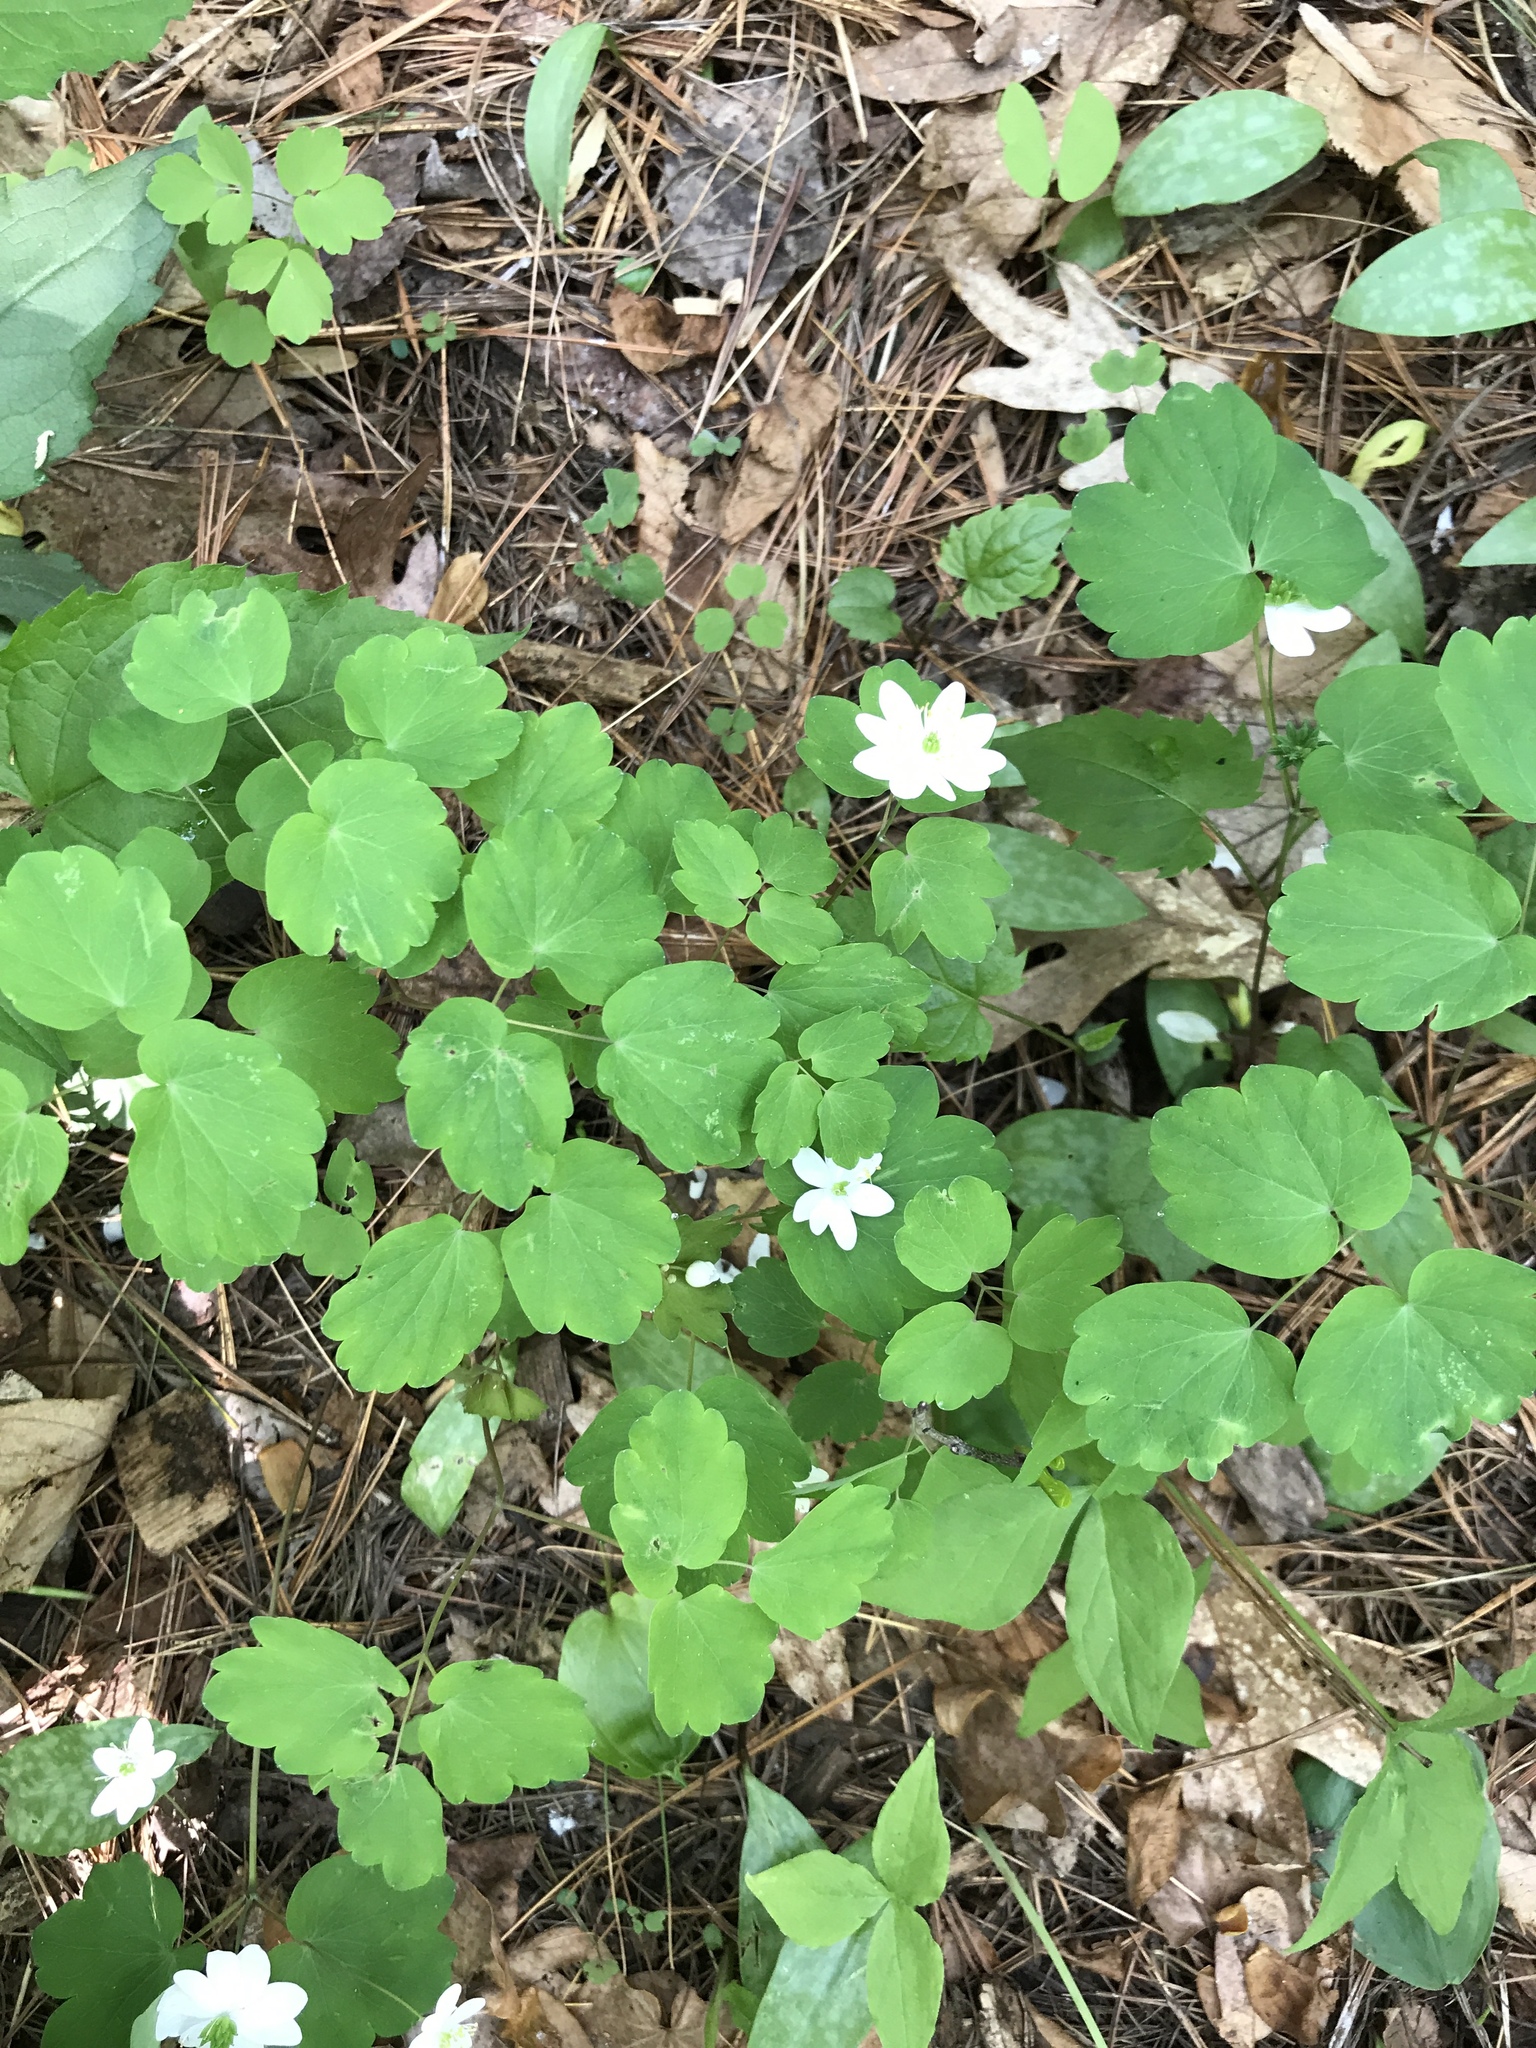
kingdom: Plantae
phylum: Tracheophyta
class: Magnoliopsida
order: Ranunculales
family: Ranunculaceae
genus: Thalictrum
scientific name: Thalictrum thalictroides
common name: Rue-anemone
